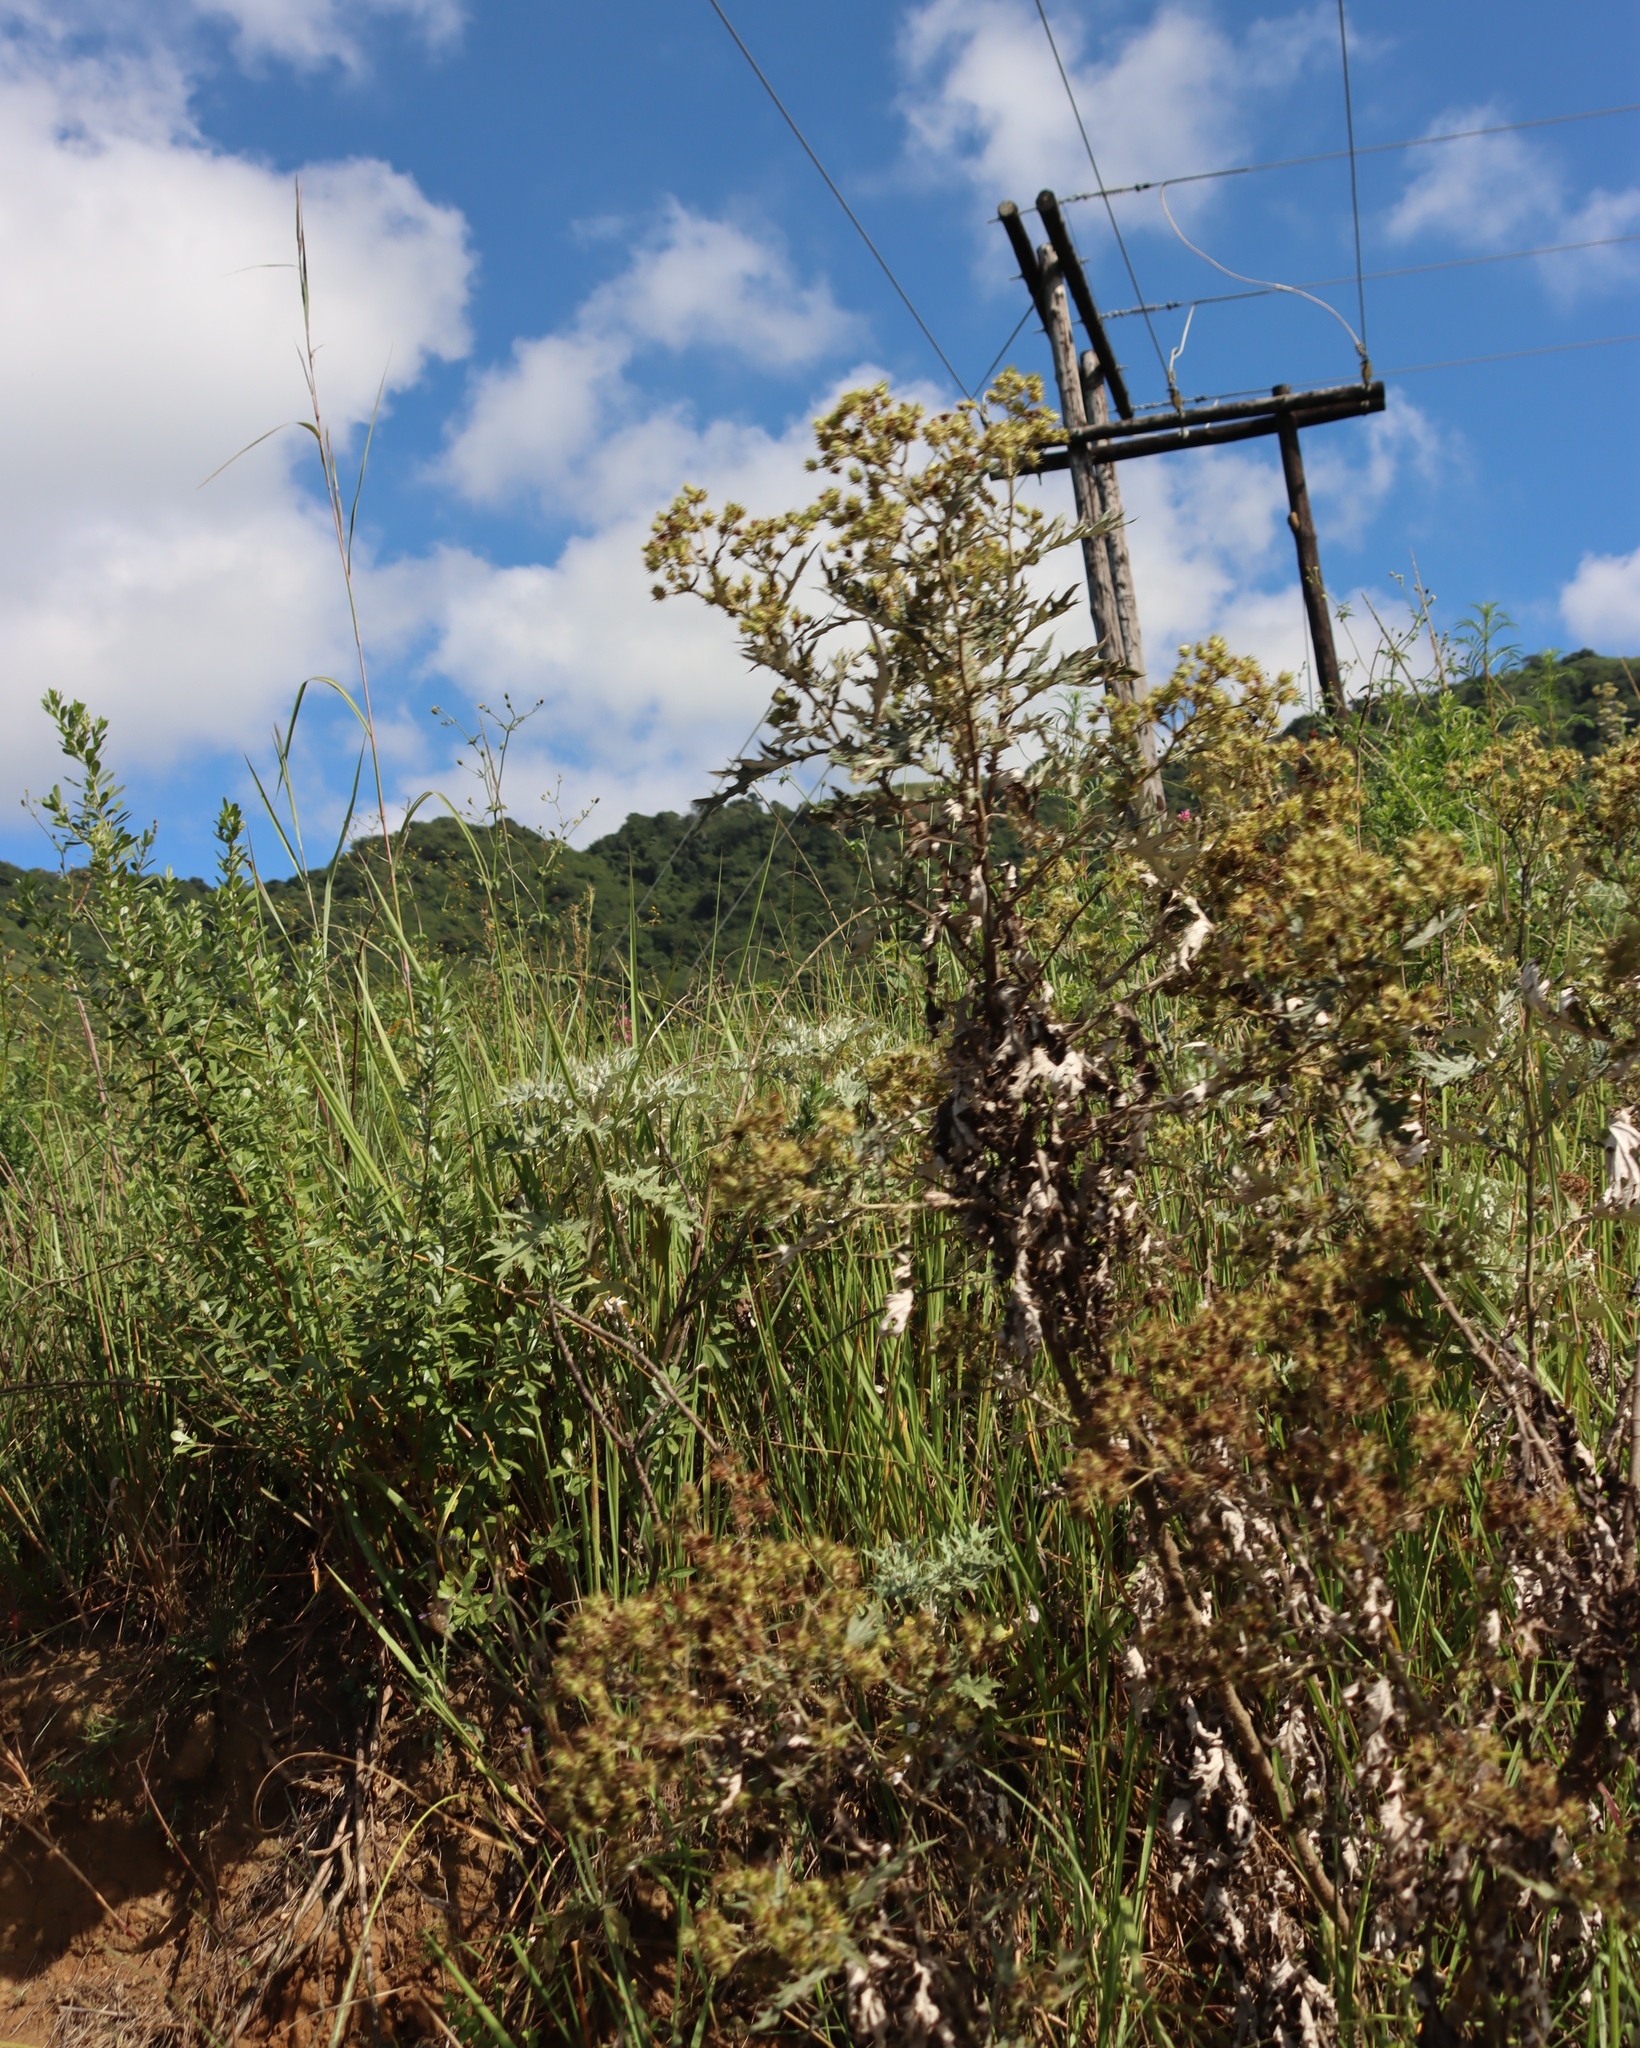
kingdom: Plantae
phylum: Tracheophyta
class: Magnoliopsida
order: Asterales
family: Asteraceae
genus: Berkheya
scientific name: Berkheya bipinnatifida
